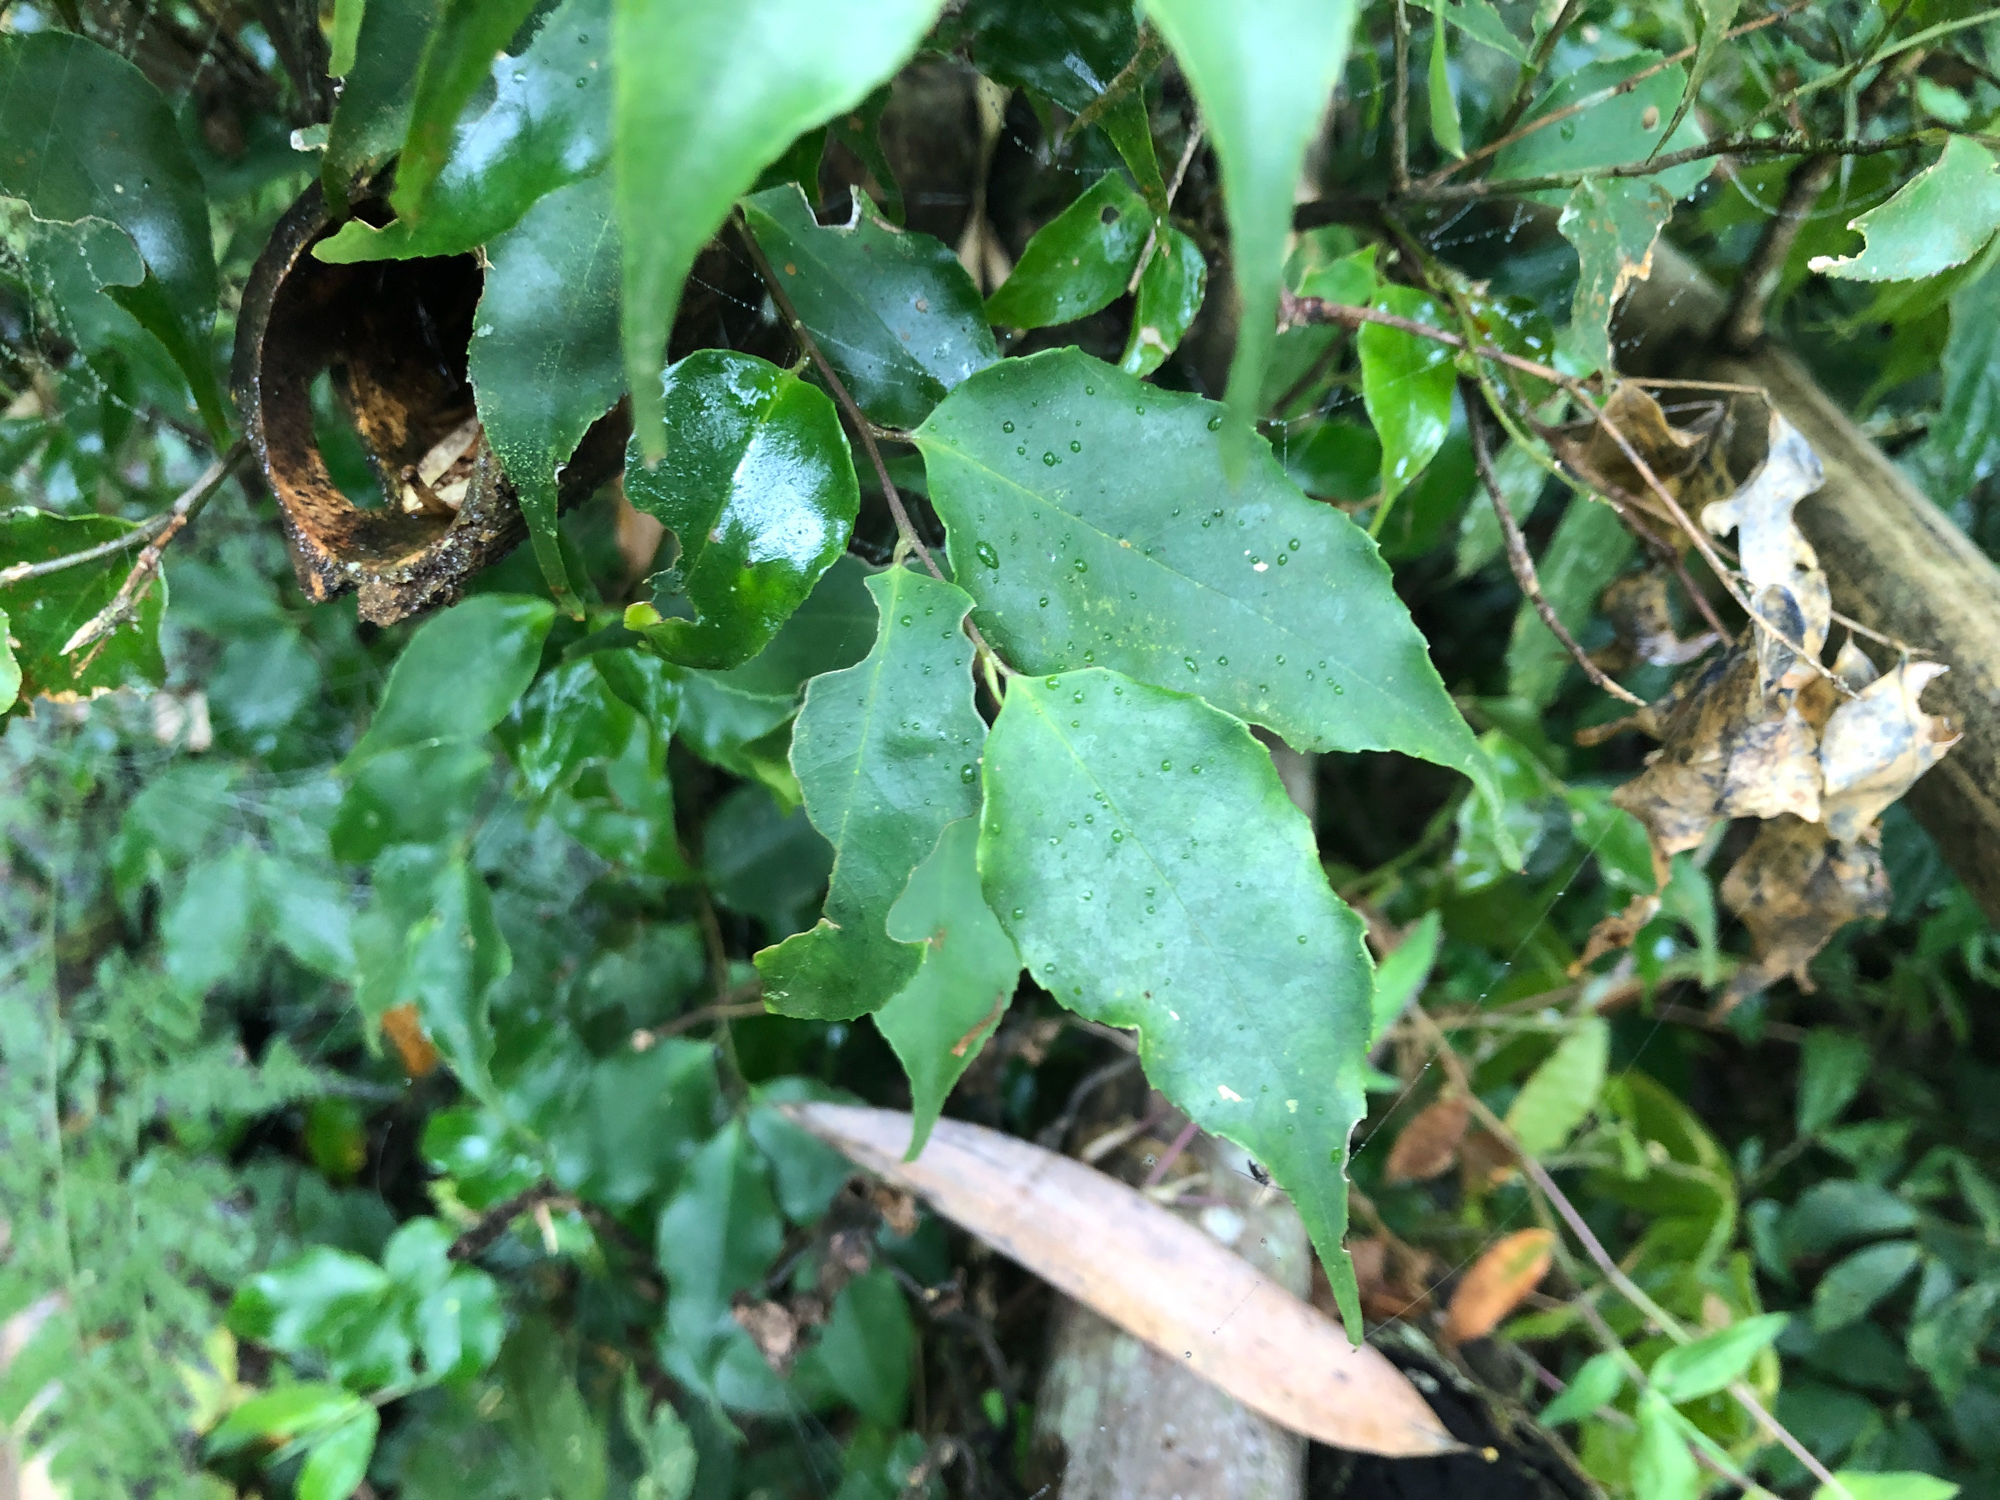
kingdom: Plantae
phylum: Tracheophyta
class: Magnoliopsida
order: Ericales
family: Symplocaceae
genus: Symplocos
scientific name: Symplocos sumuntia
